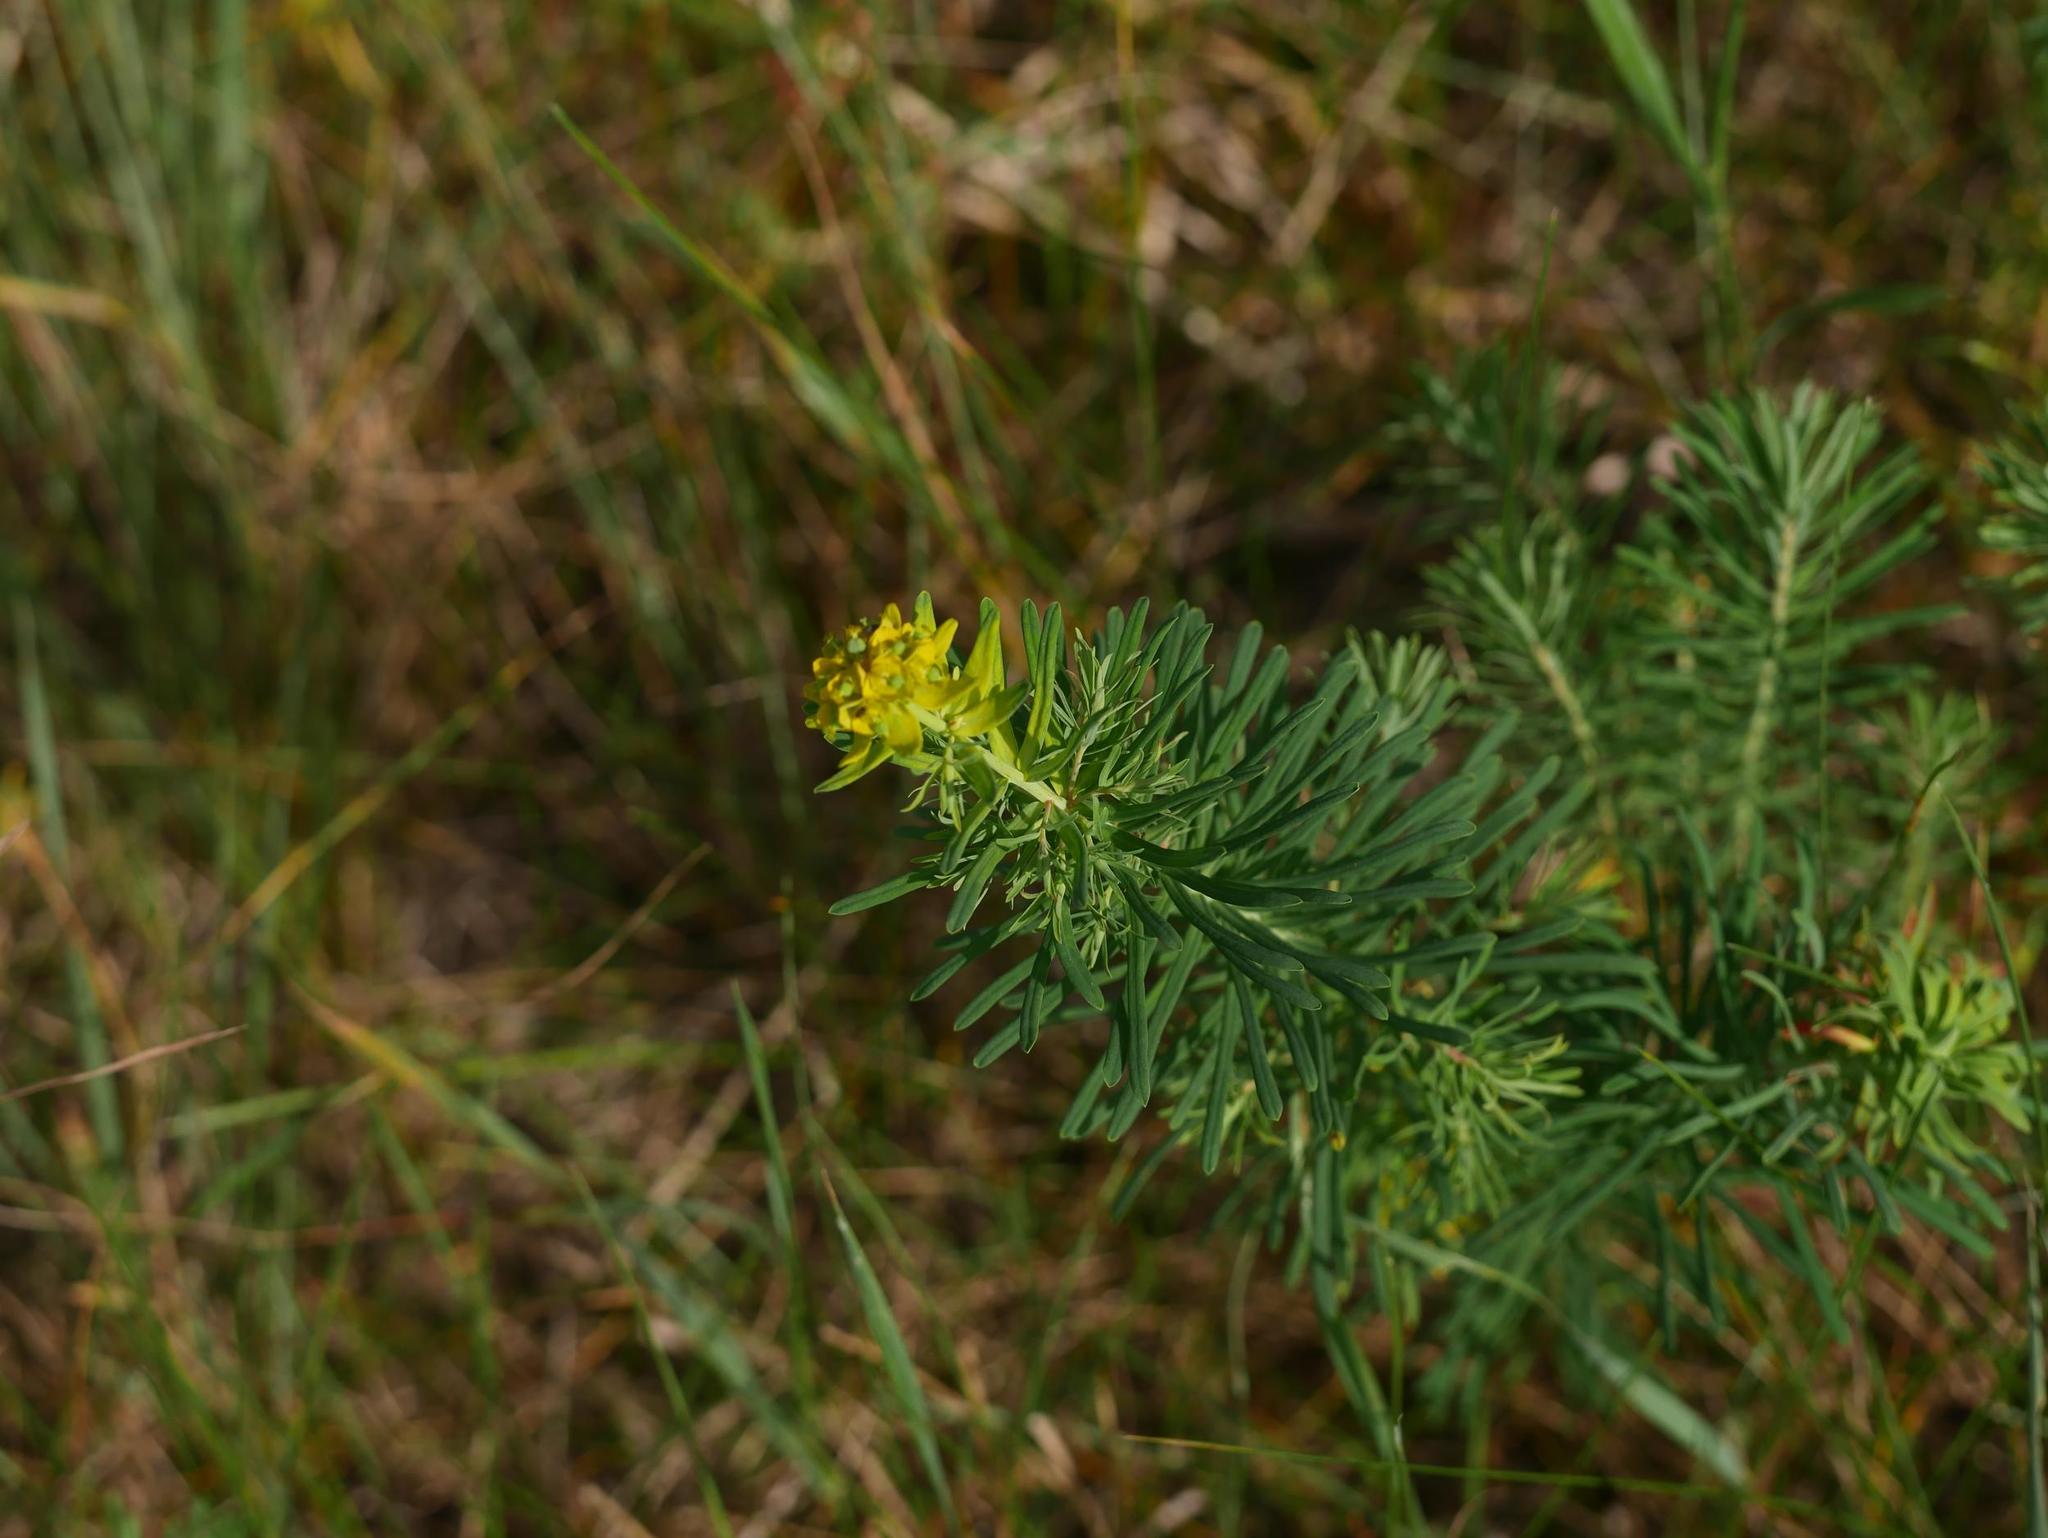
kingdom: Plantae
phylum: Tracheophyta
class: Magnoliopsida
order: Malpighiales
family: Euphorbiaceae
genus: Euphorbia
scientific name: Euphorbia cyparissias
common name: Cypress spurge
